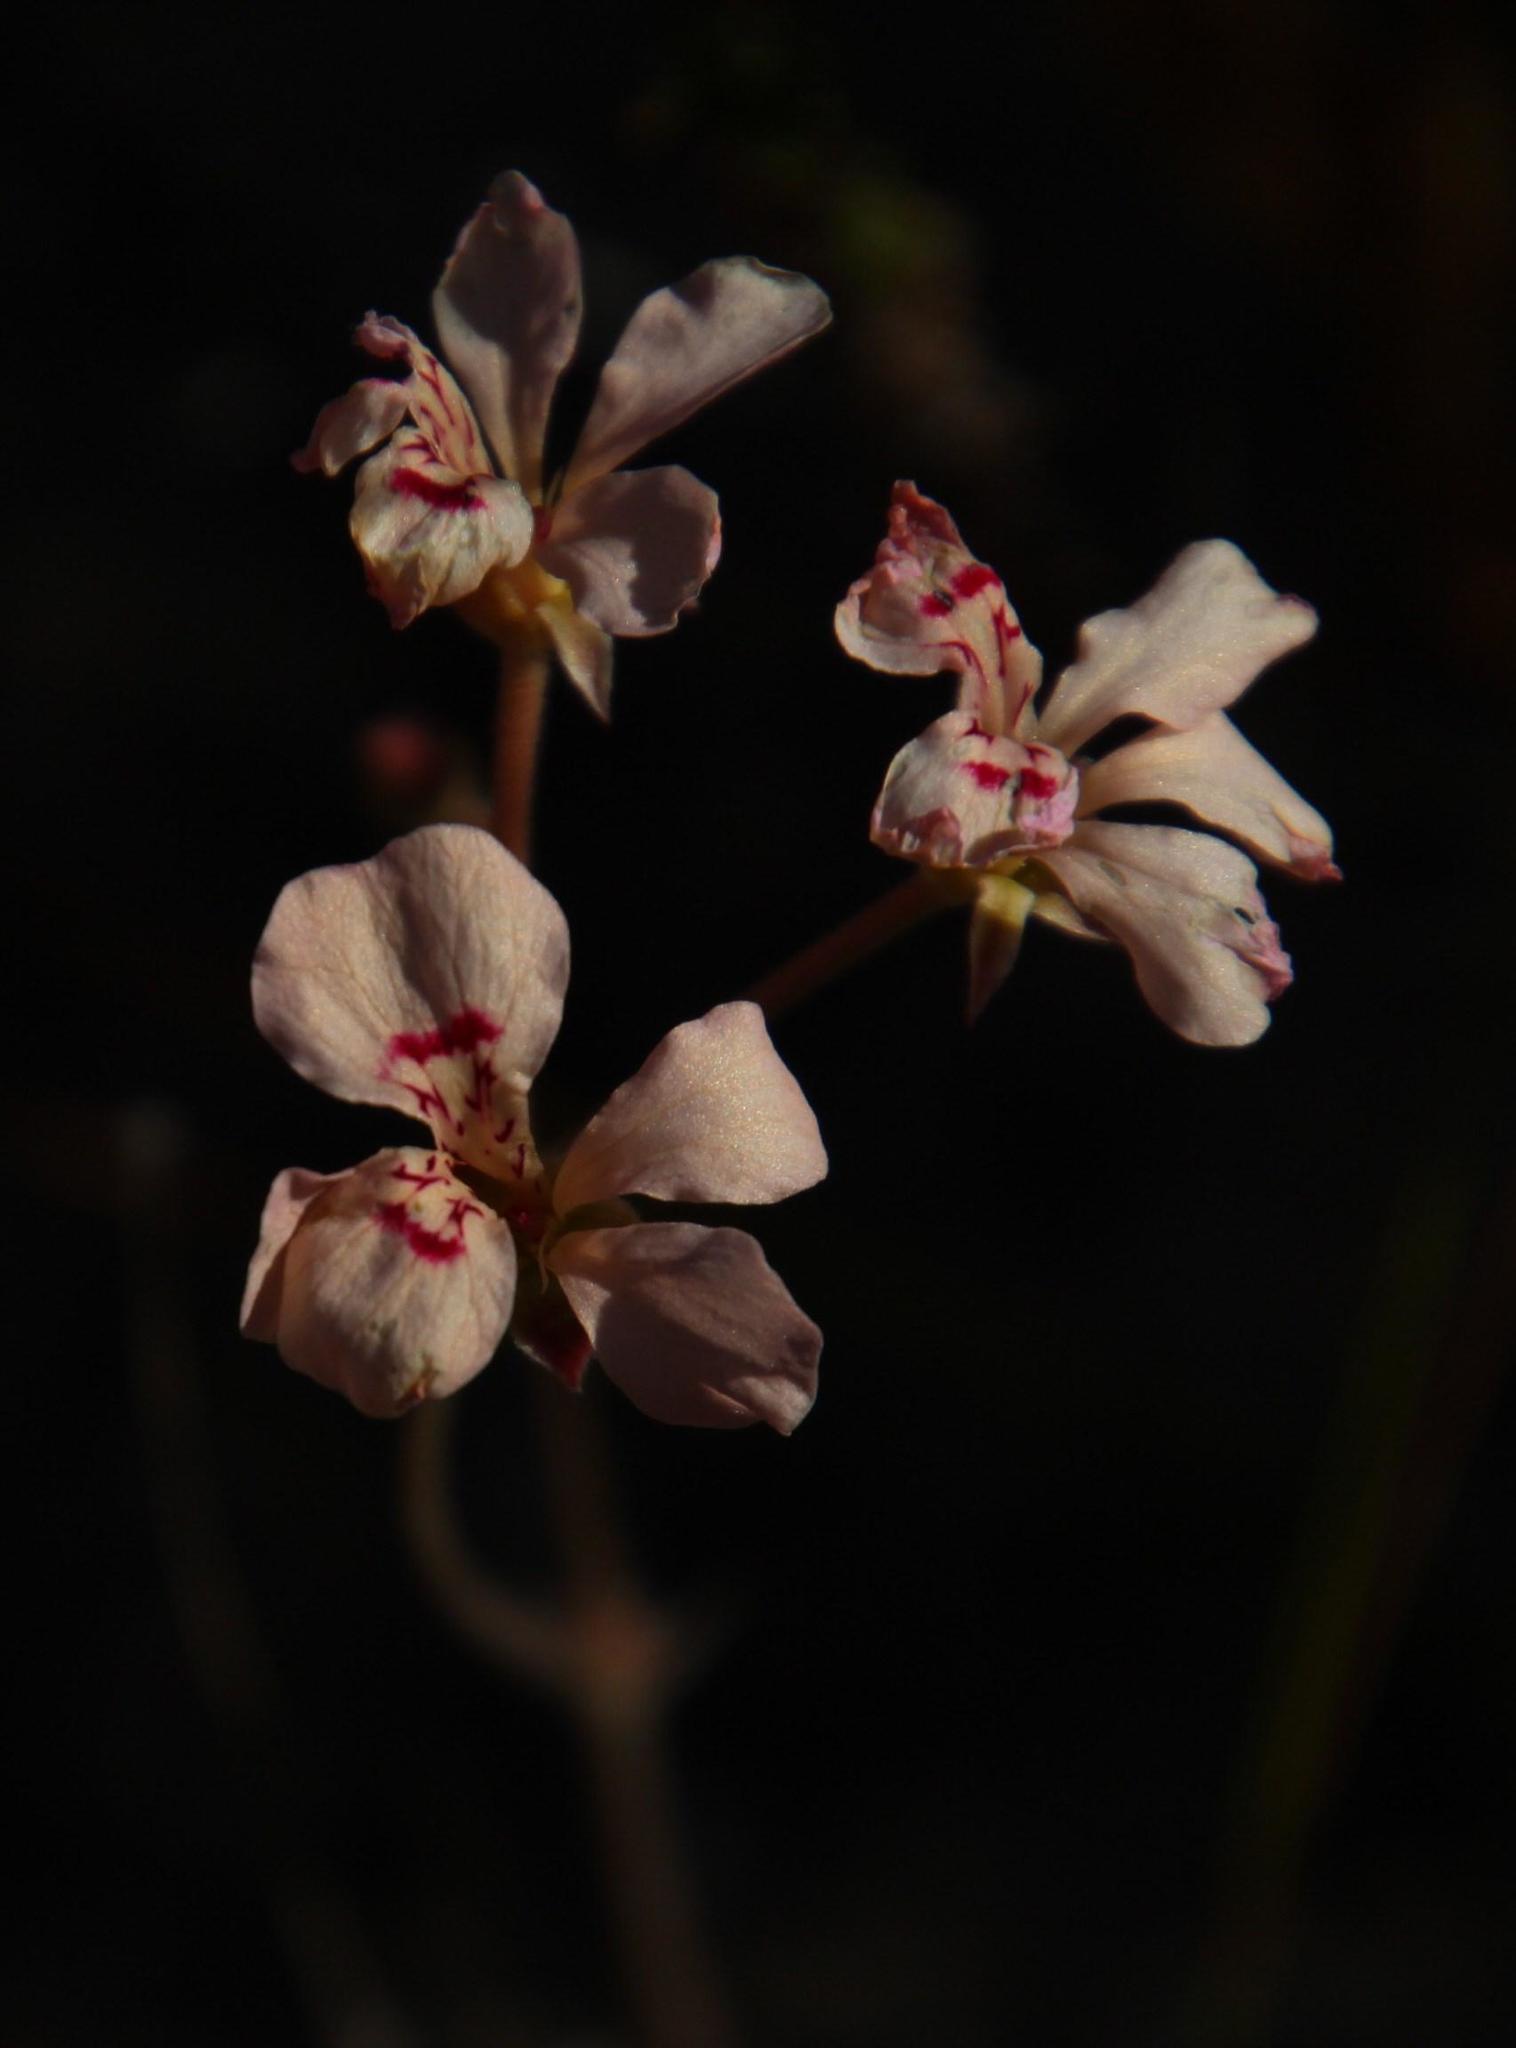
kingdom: Plantae
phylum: Tracheophyta
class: Magnoliopsida
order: Geraniales
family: Geraniaceae
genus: Pelargonium
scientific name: Pelargonium pinnatum
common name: Pinnated pelargonium
